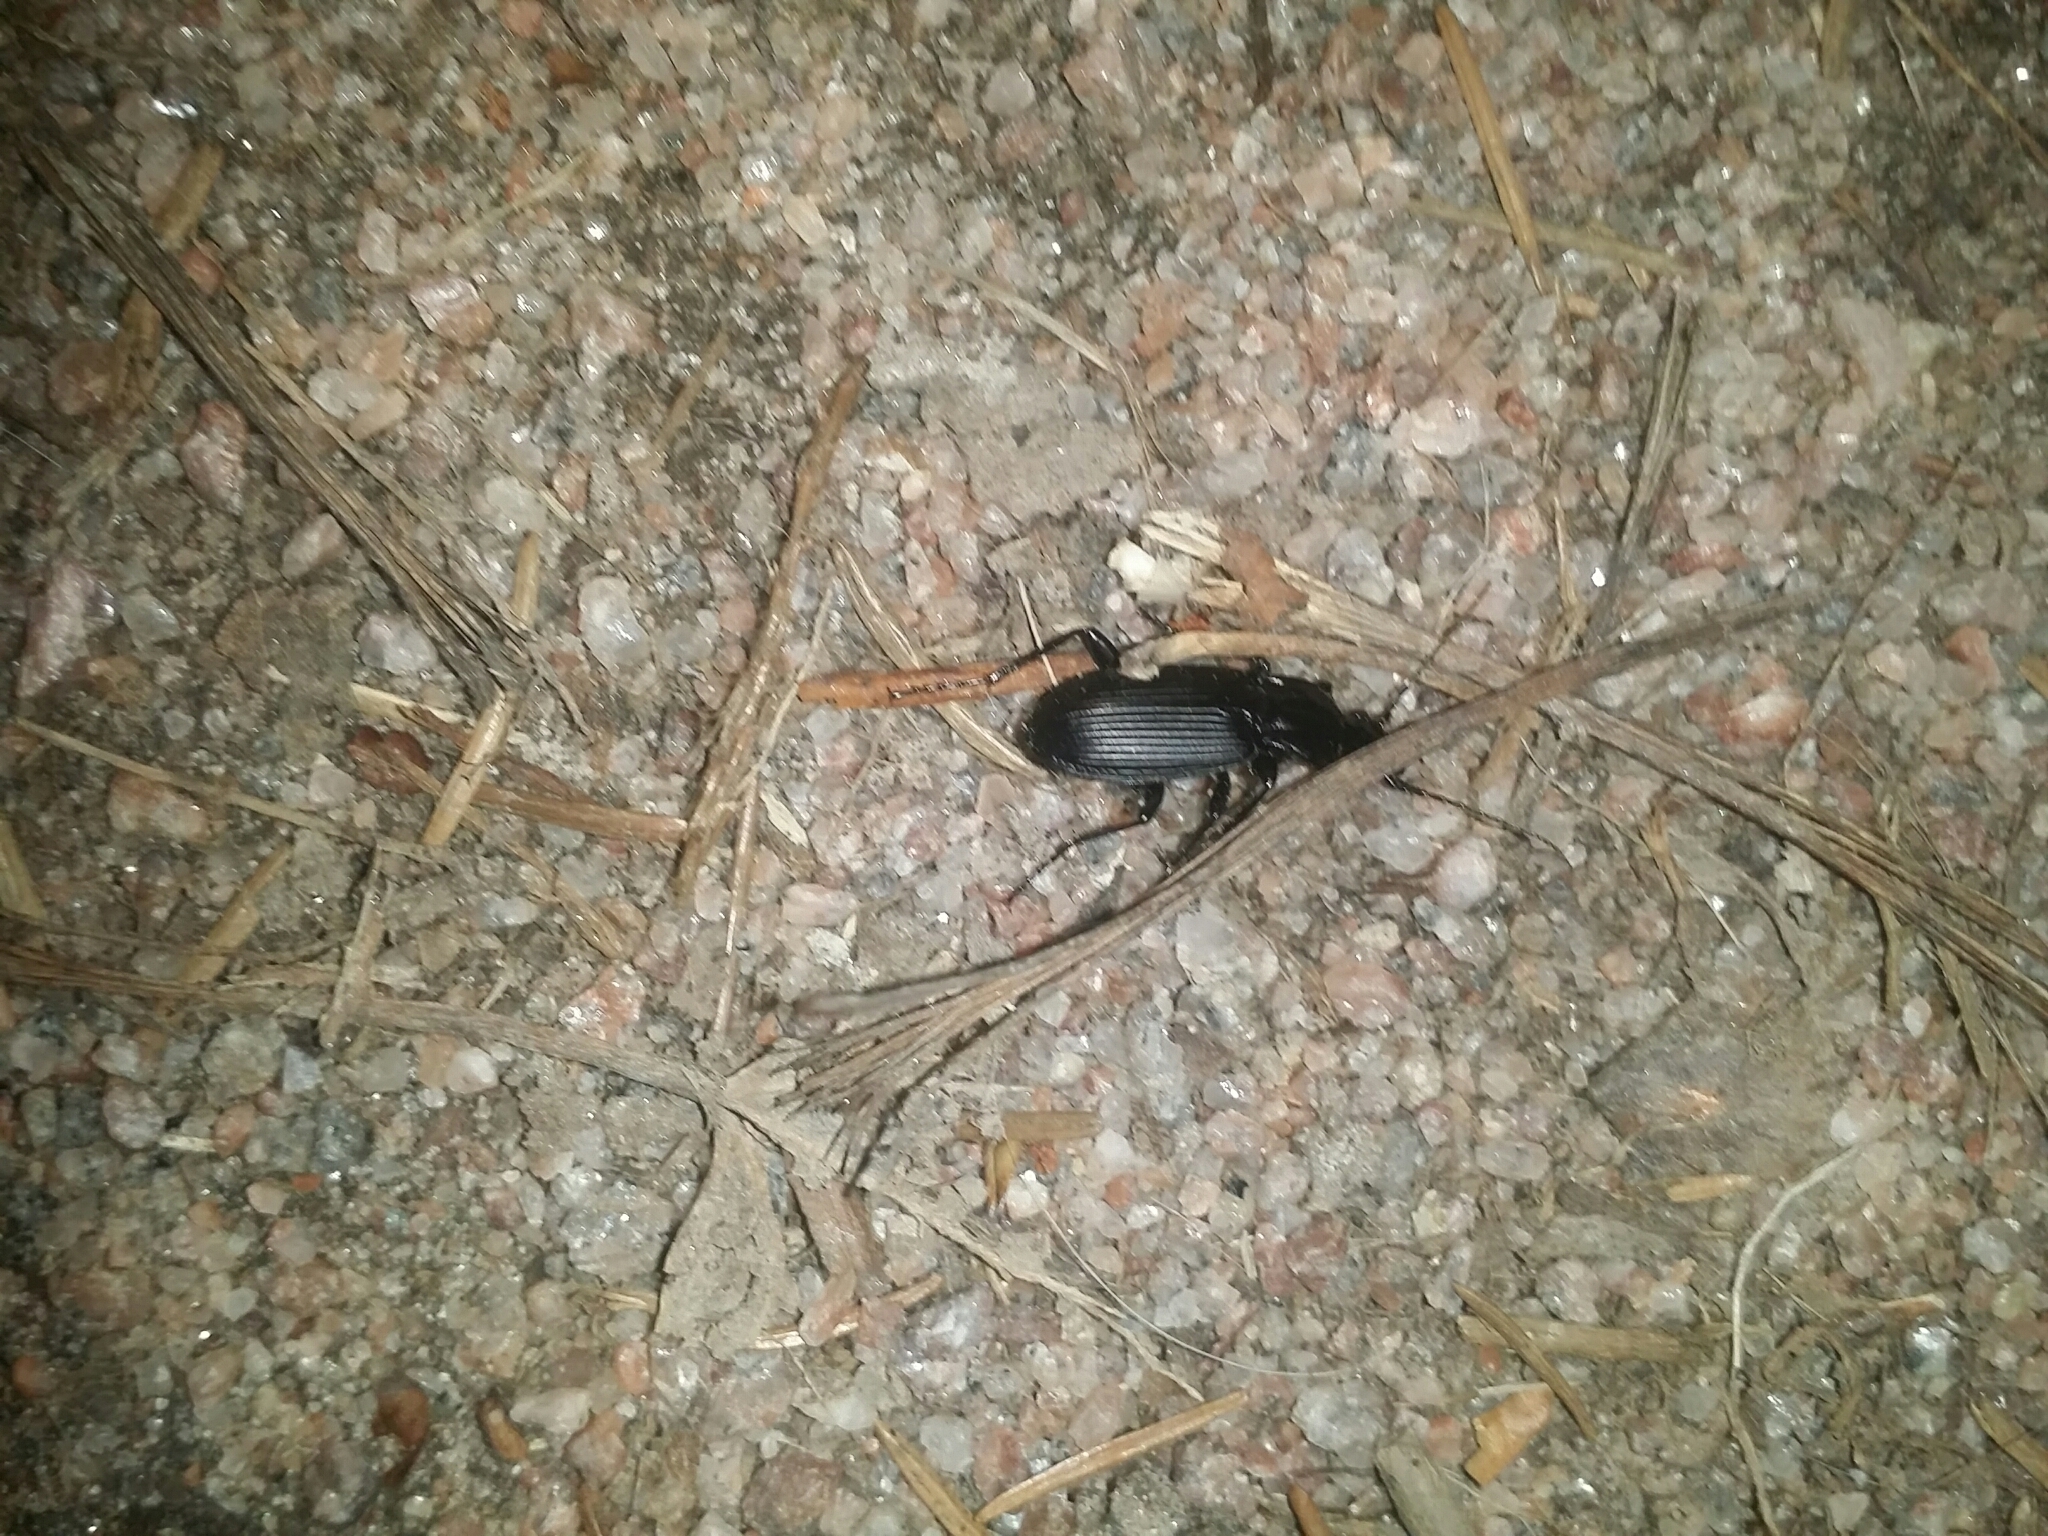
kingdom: Animalia
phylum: Arthropoda
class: Insecta
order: Coleoptera
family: Carabidae
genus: Pterostichus
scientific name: Pterostichus niger
